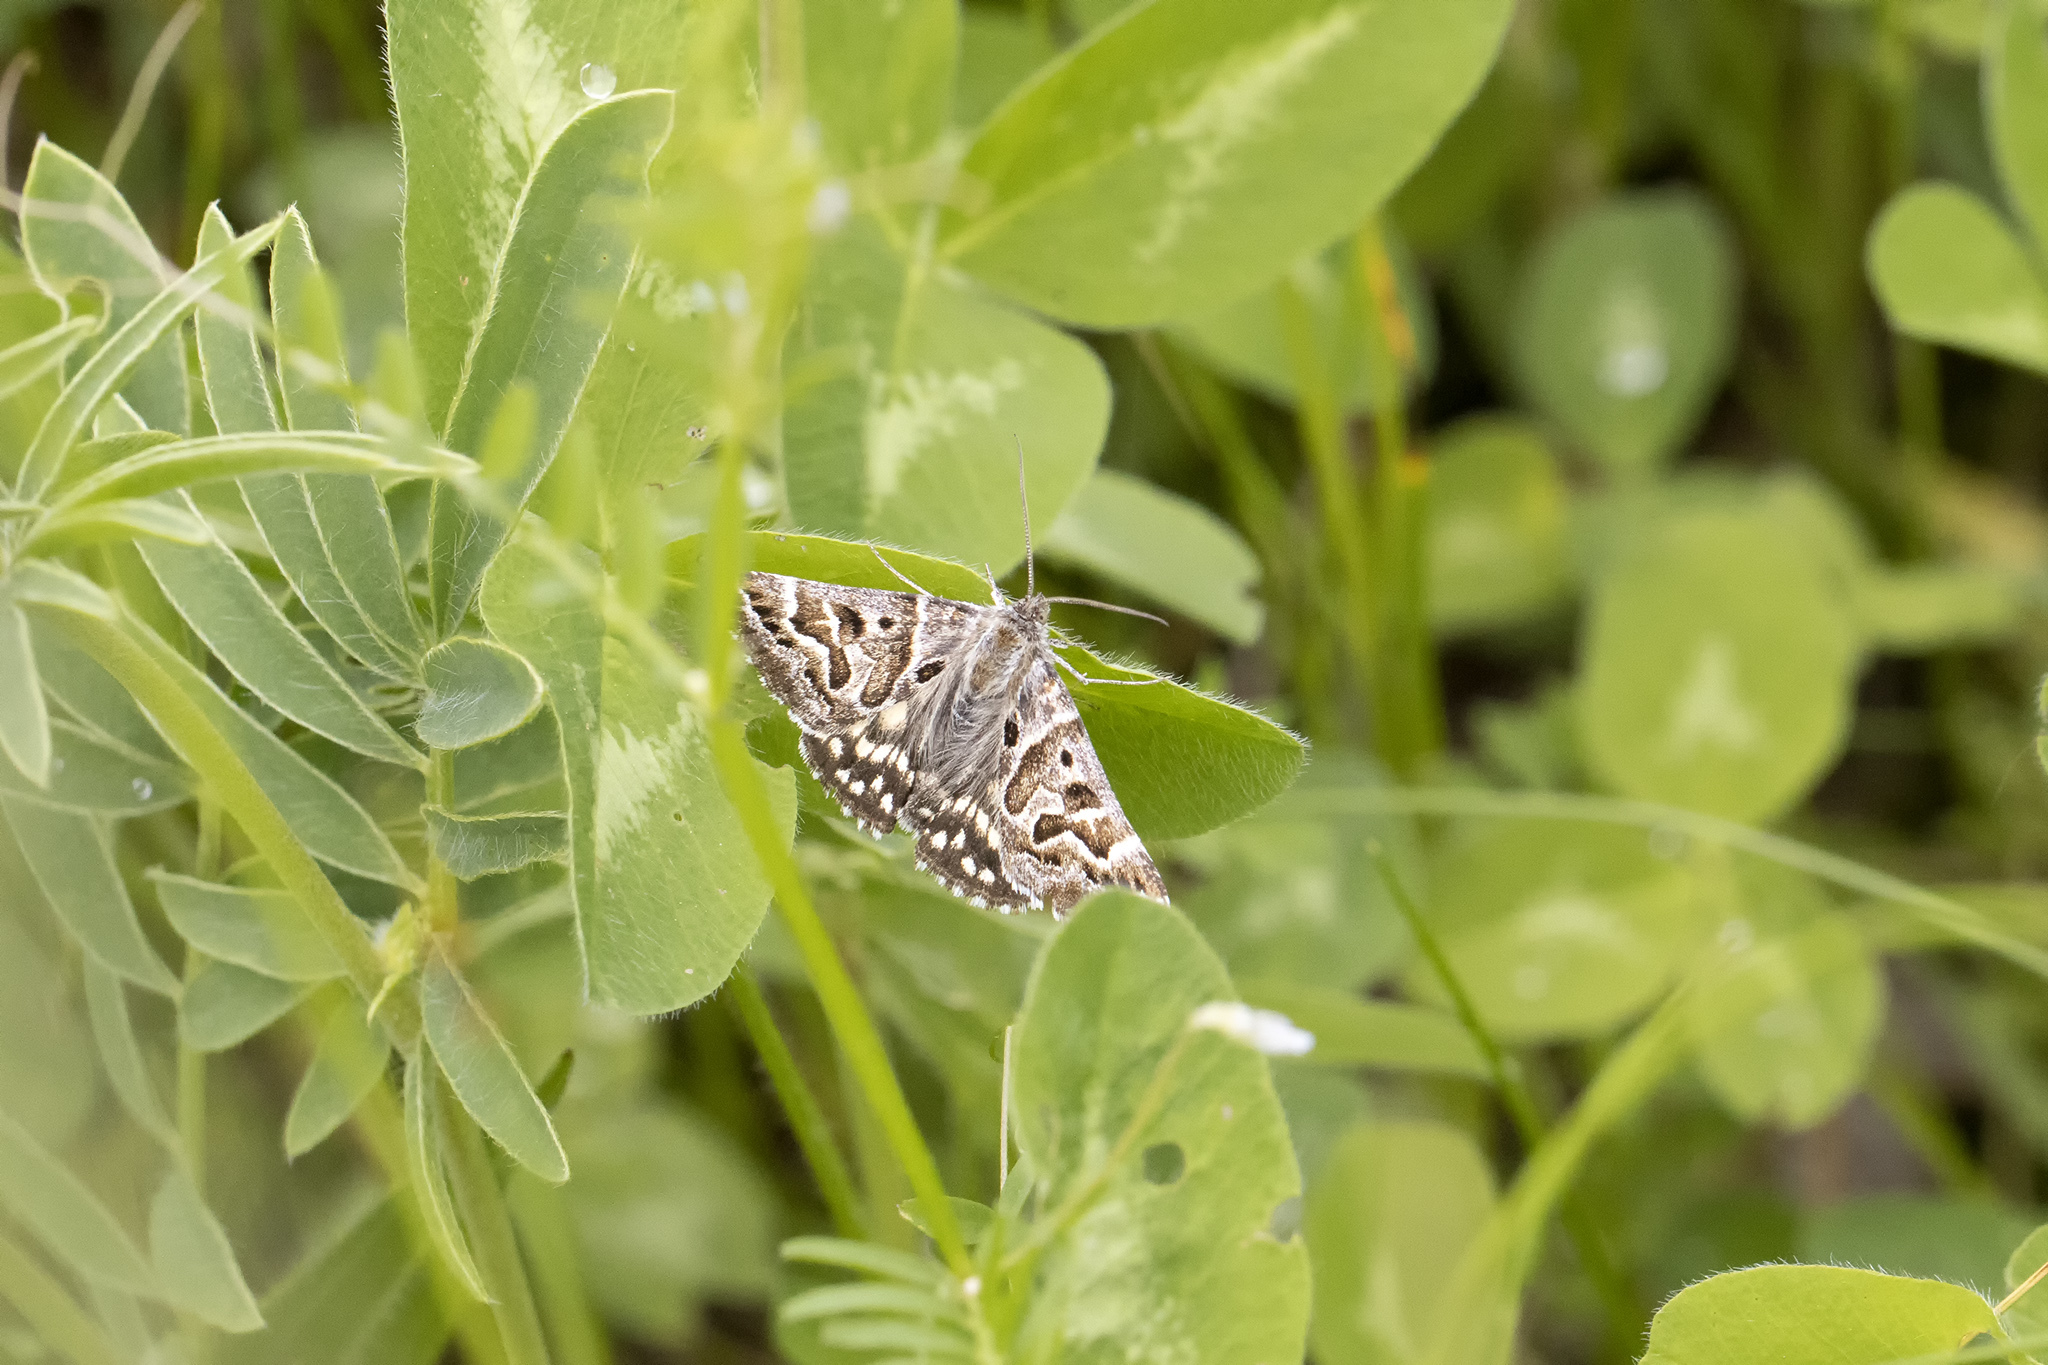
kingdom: Animalia
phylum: Arthropoda
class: Insecta
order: Lepidoptera
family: Erebidae
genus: Callistege
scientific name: Callistege mi
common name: Mother shipton
